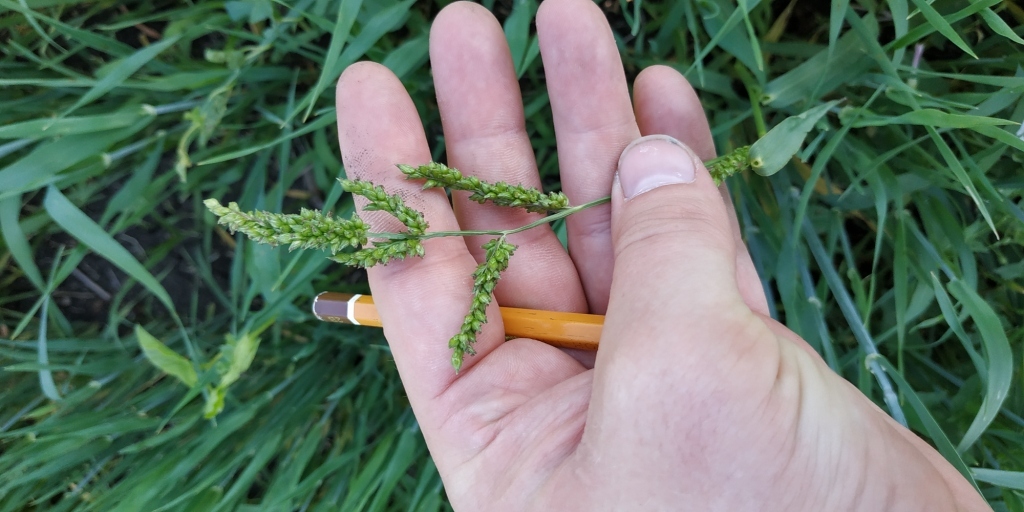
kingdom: Plantae
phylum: Tracheophyta
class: Liliopsida
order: Poales
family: Poaceae
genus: Echinochloa
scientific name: Echinochloa crus-galli
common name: Cockspur
